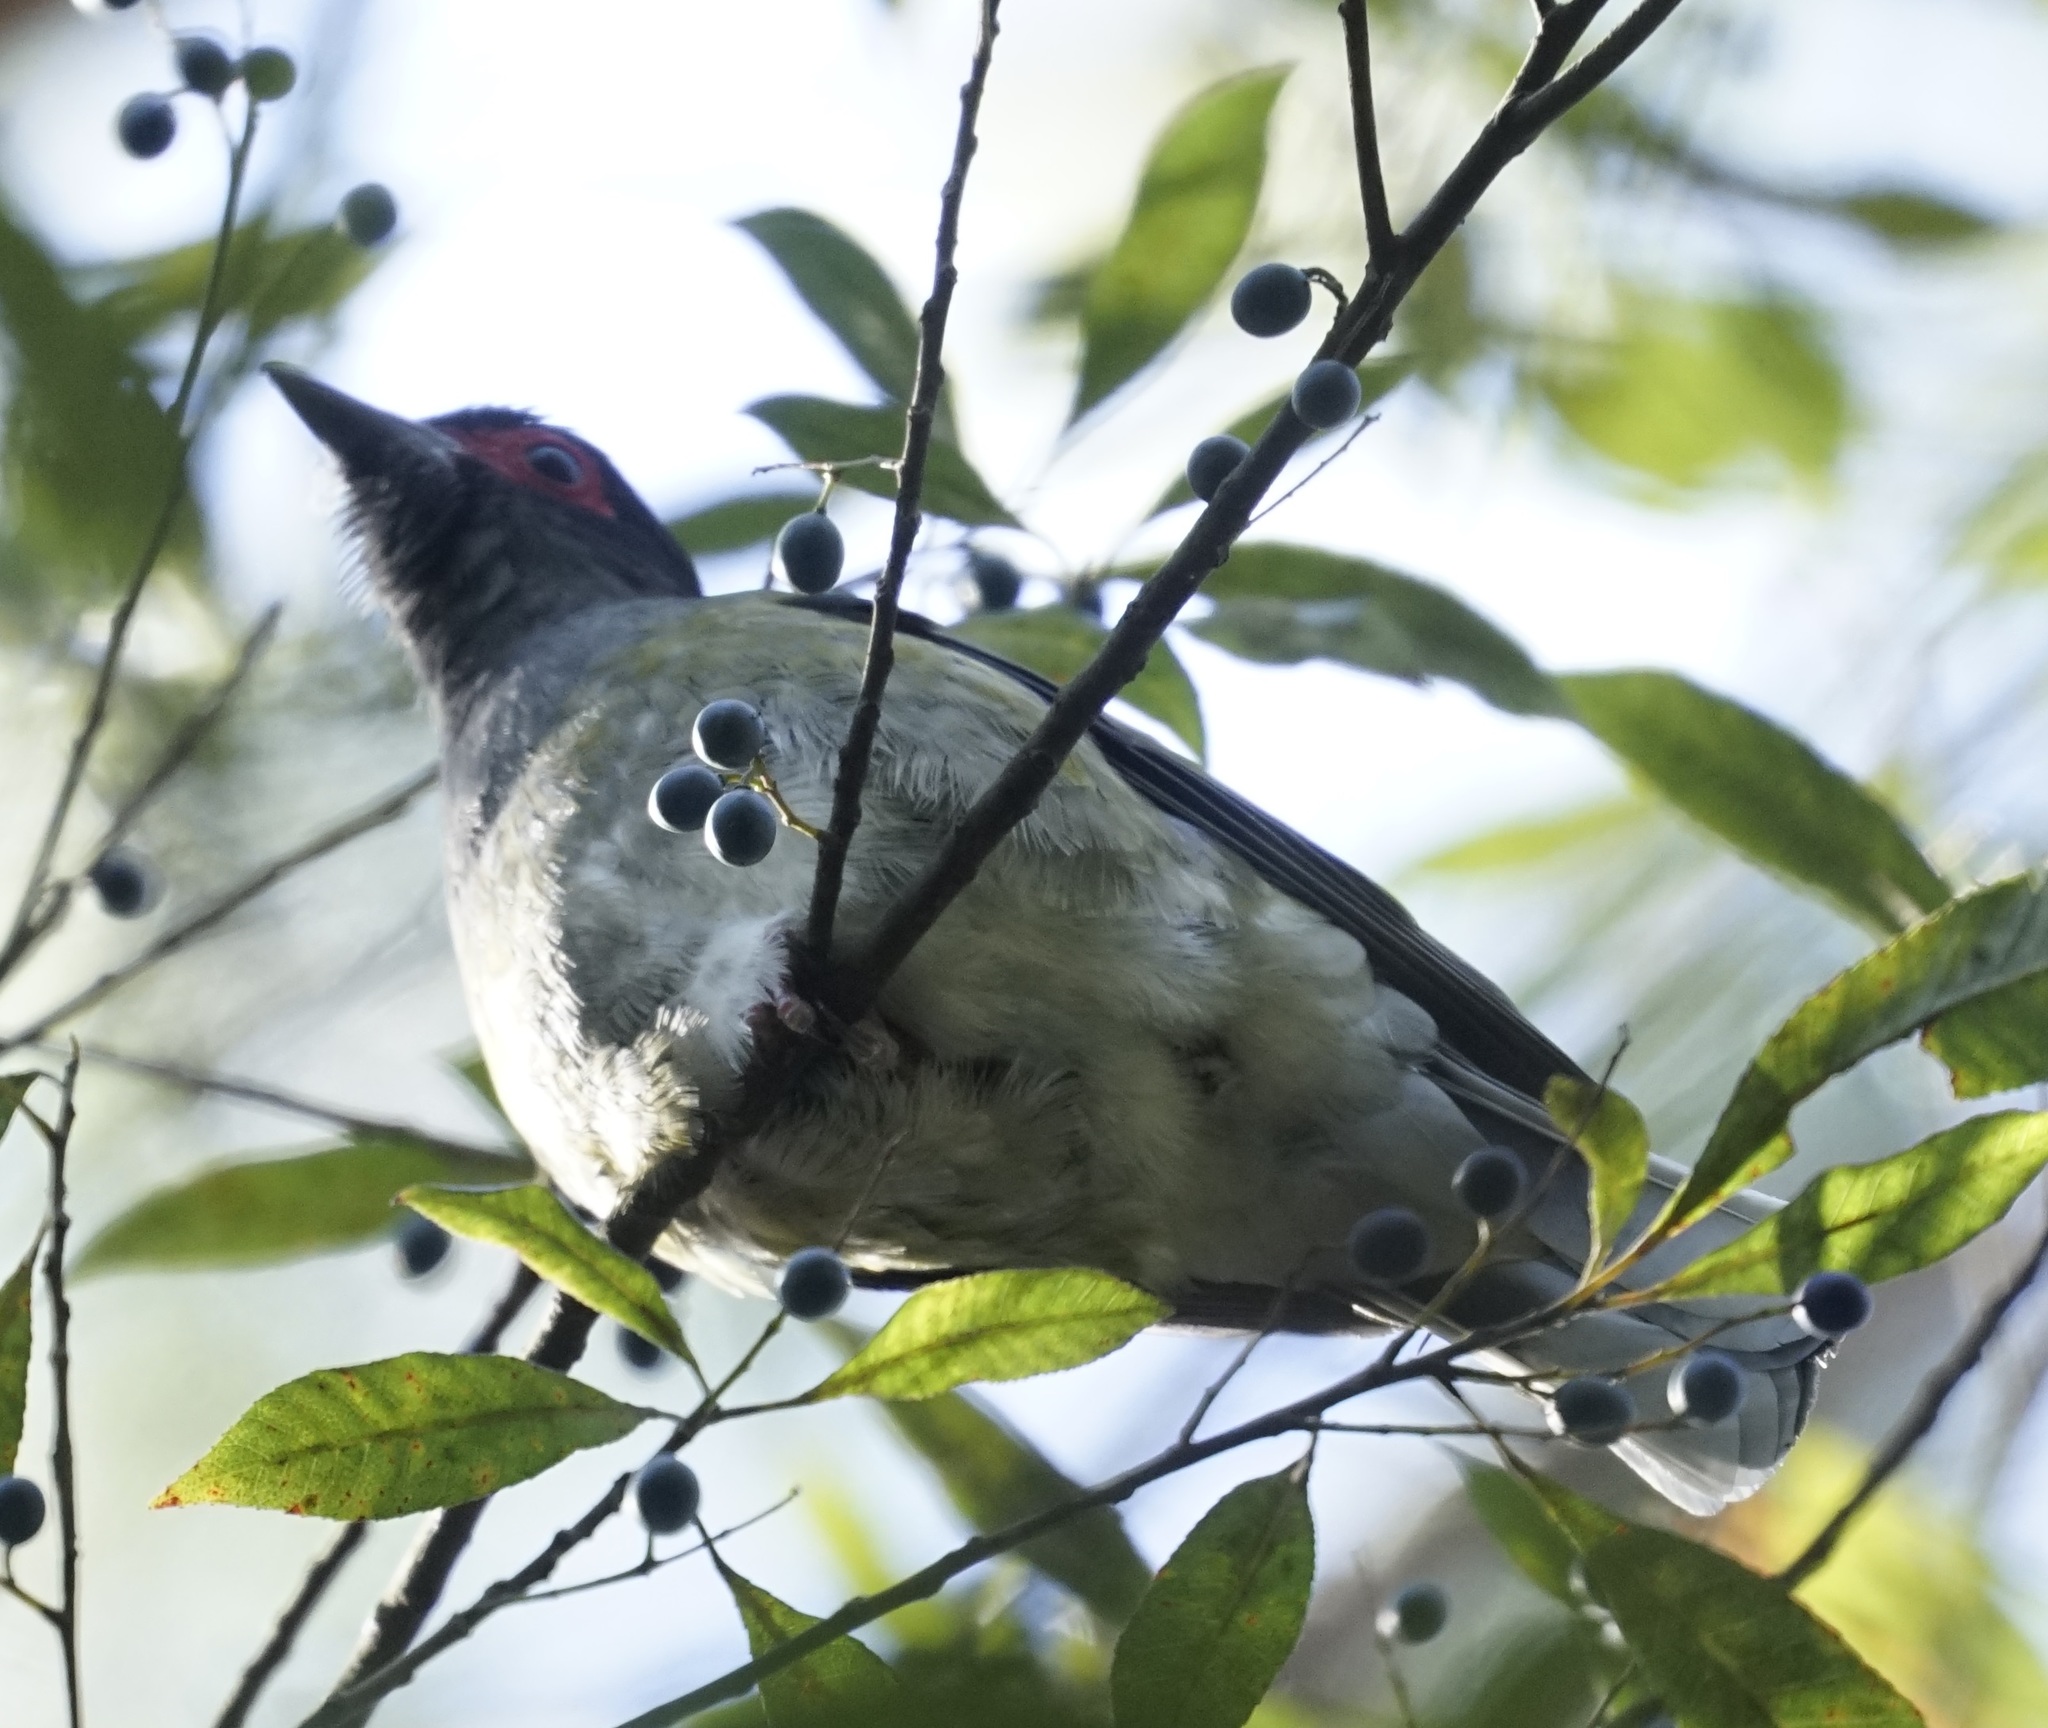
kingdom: Animalia
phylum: Chordata
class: Aves
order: Passeriformes
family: Oriolidae
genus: Sphecotheres
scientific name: Sphecotheres vieilloti
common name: Australasian figbird
